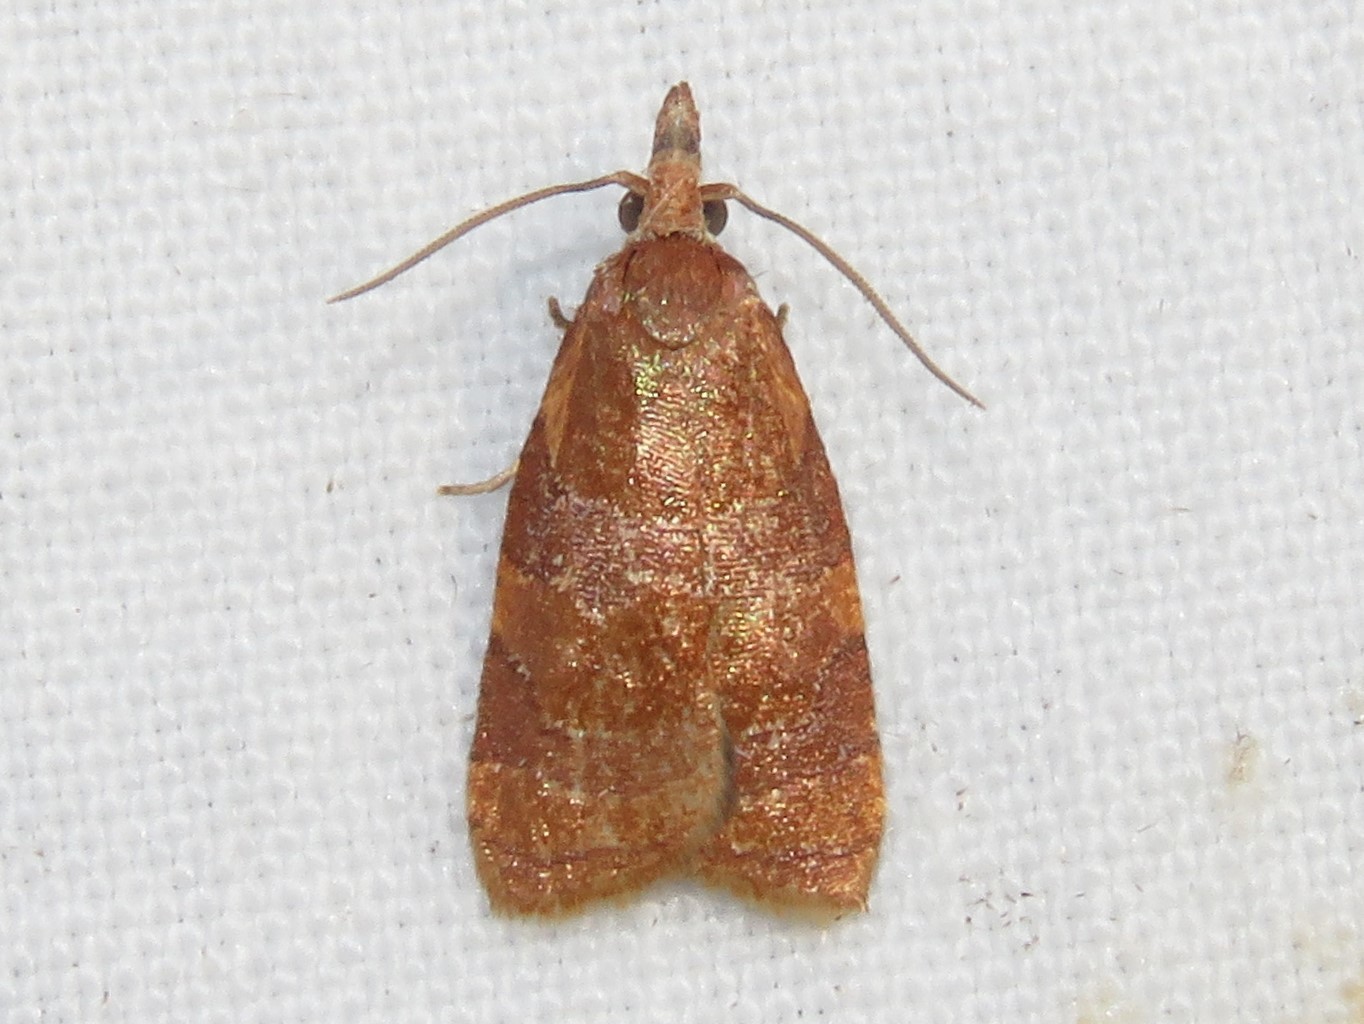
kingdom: Animalia
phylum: Arthropoda
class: Insecta
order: Lepidoptera
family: Tortricidae
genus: Cenopis
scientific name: Cenopis diluticostana
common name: Spring dead-leaf roller moth
